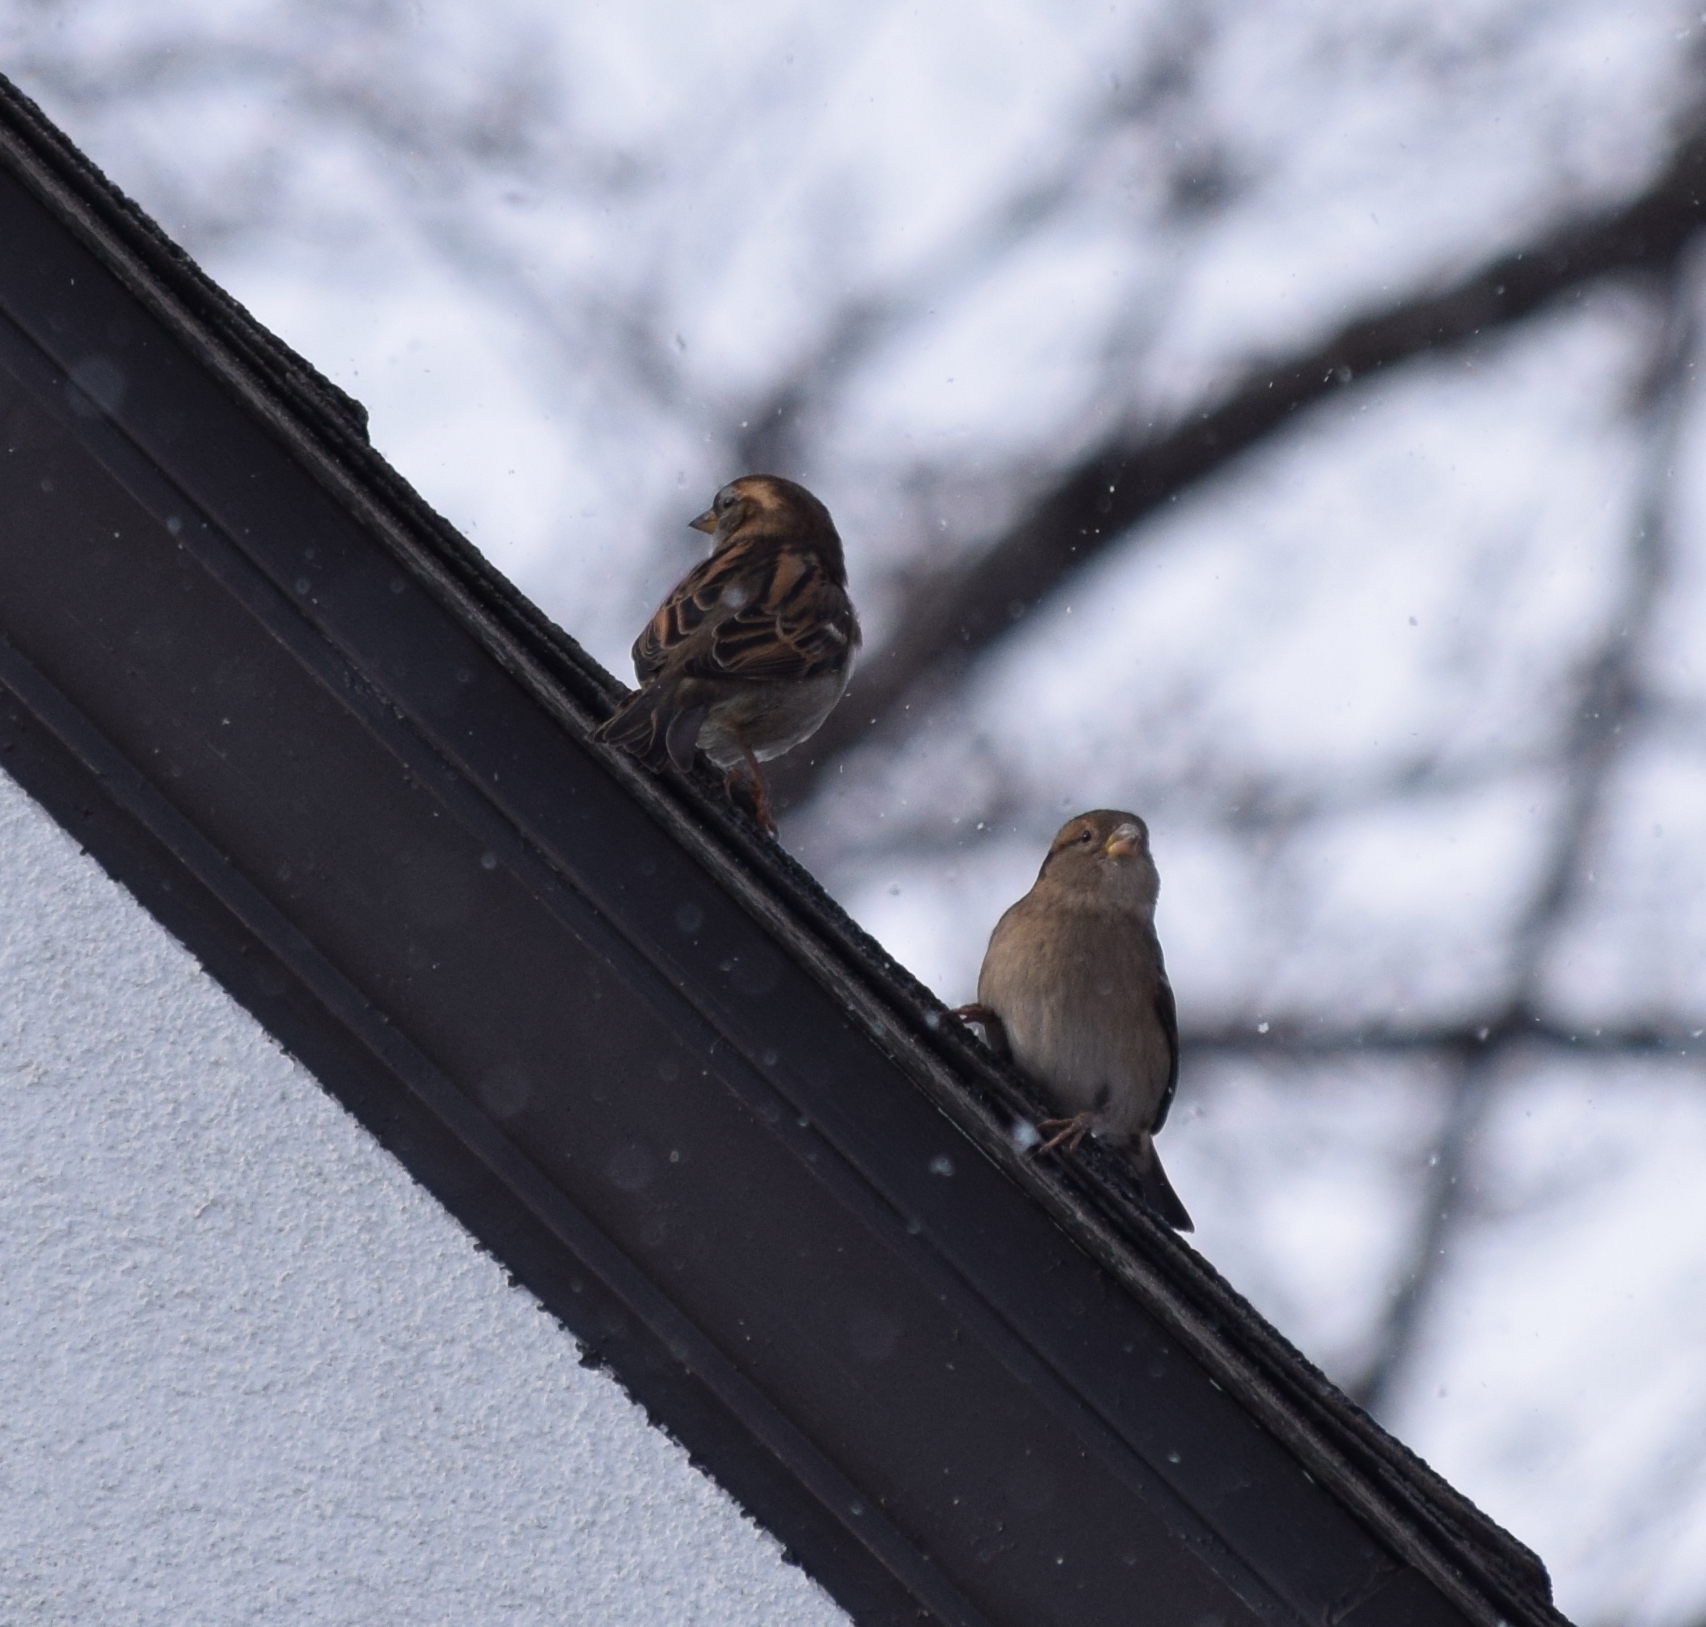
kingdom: Animalia
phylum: Chordata
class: Aves
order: Passeriformes
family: Passeridae
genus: Passer
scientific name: Passer domesticus
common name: House sparrow
